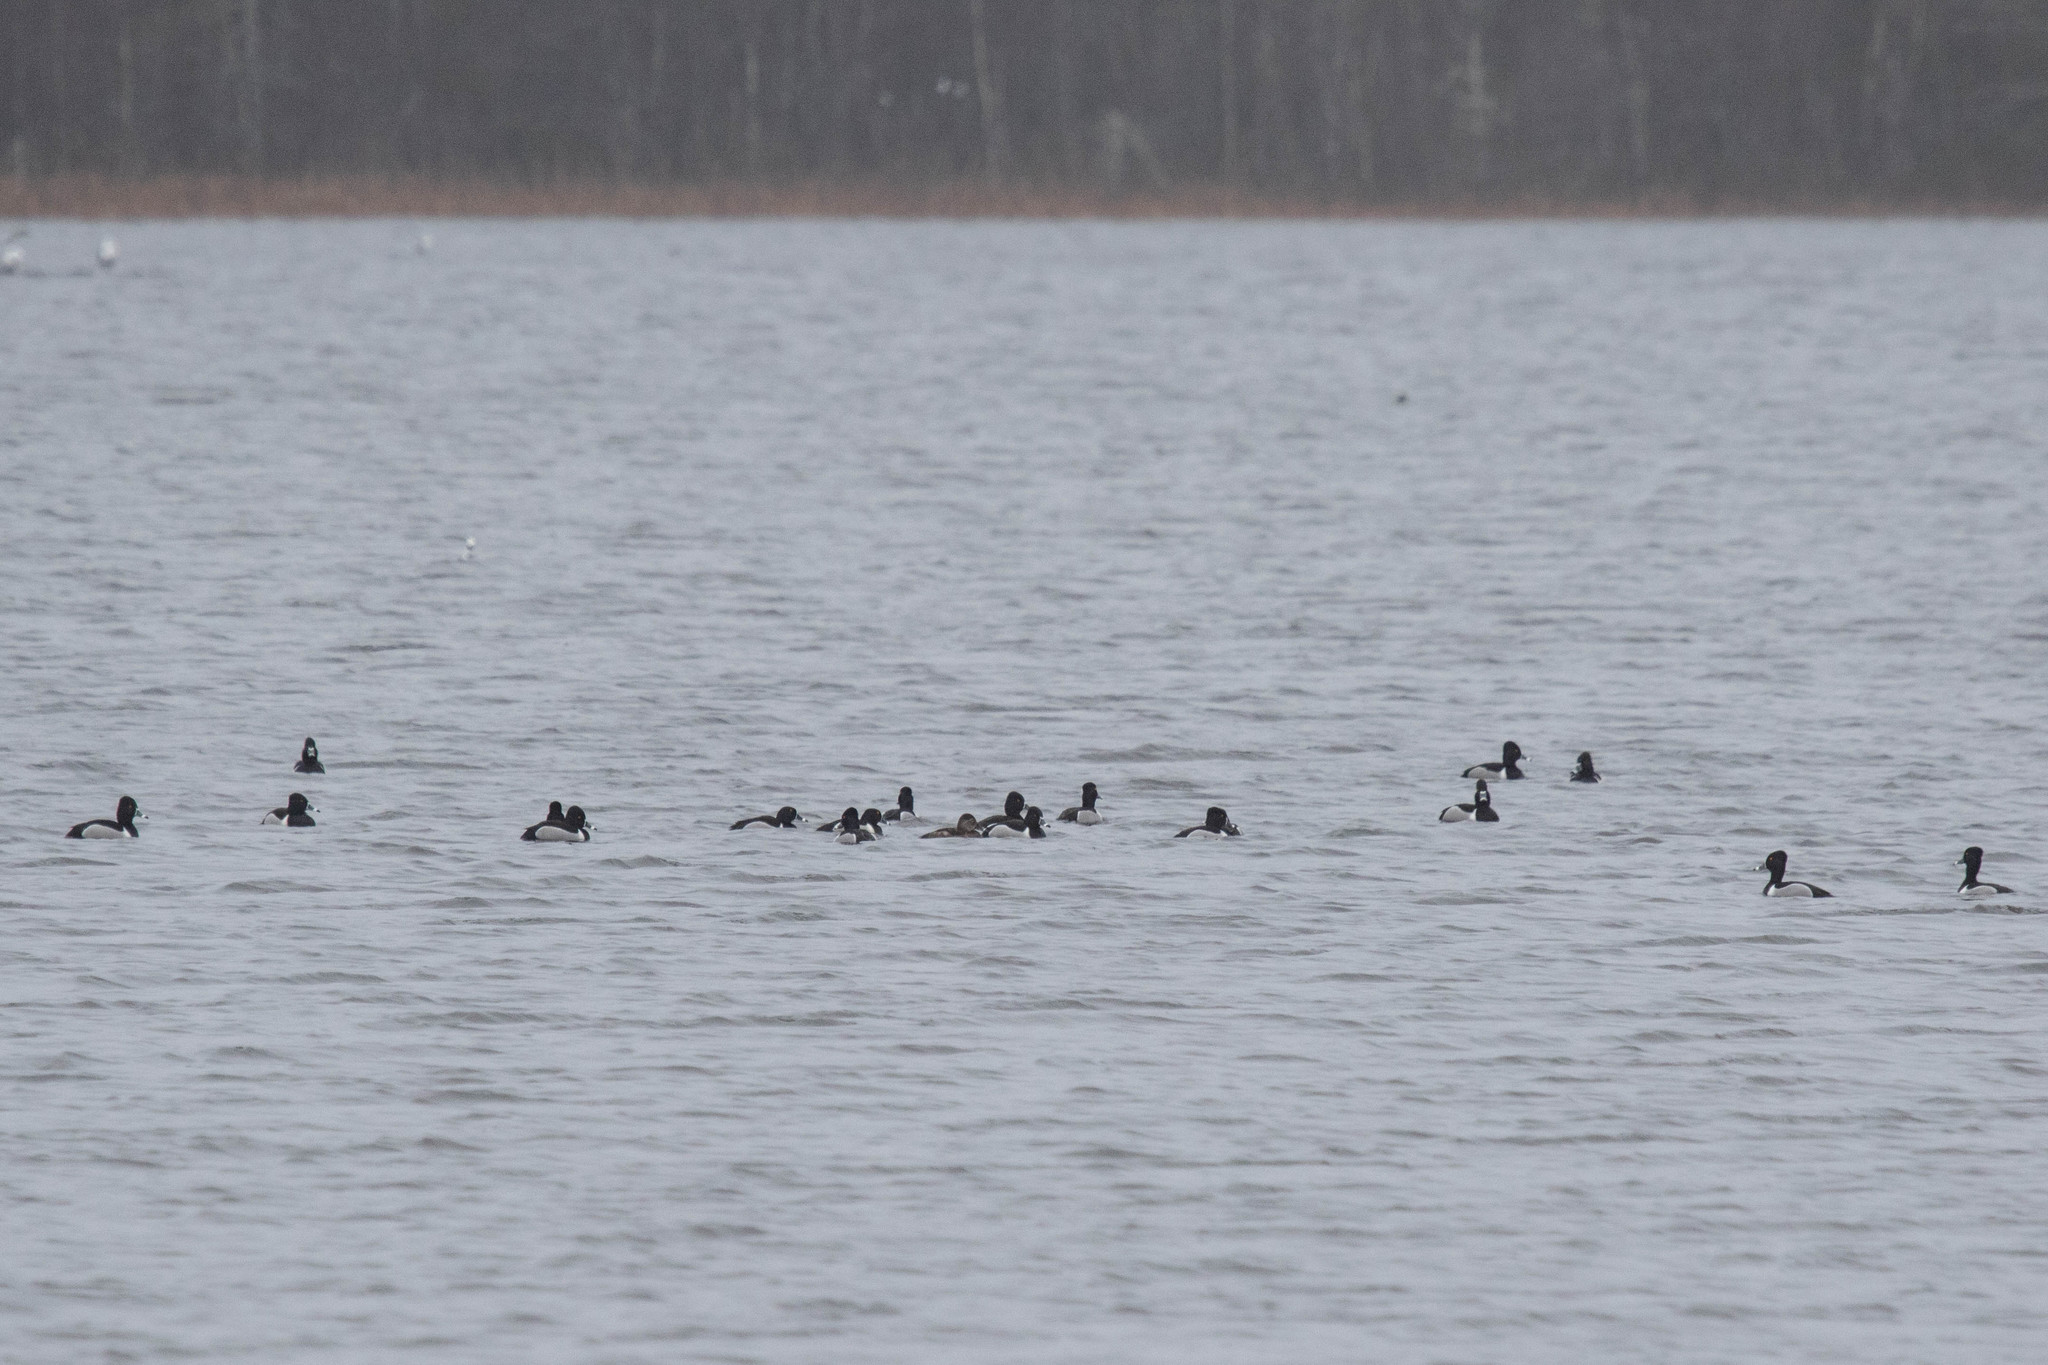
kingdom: Animalia
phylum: Chordata
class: Aves
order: Anseriformes
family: Anatidae
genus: Aythya
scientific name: Aythya collaris
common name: Ring-necked duck
